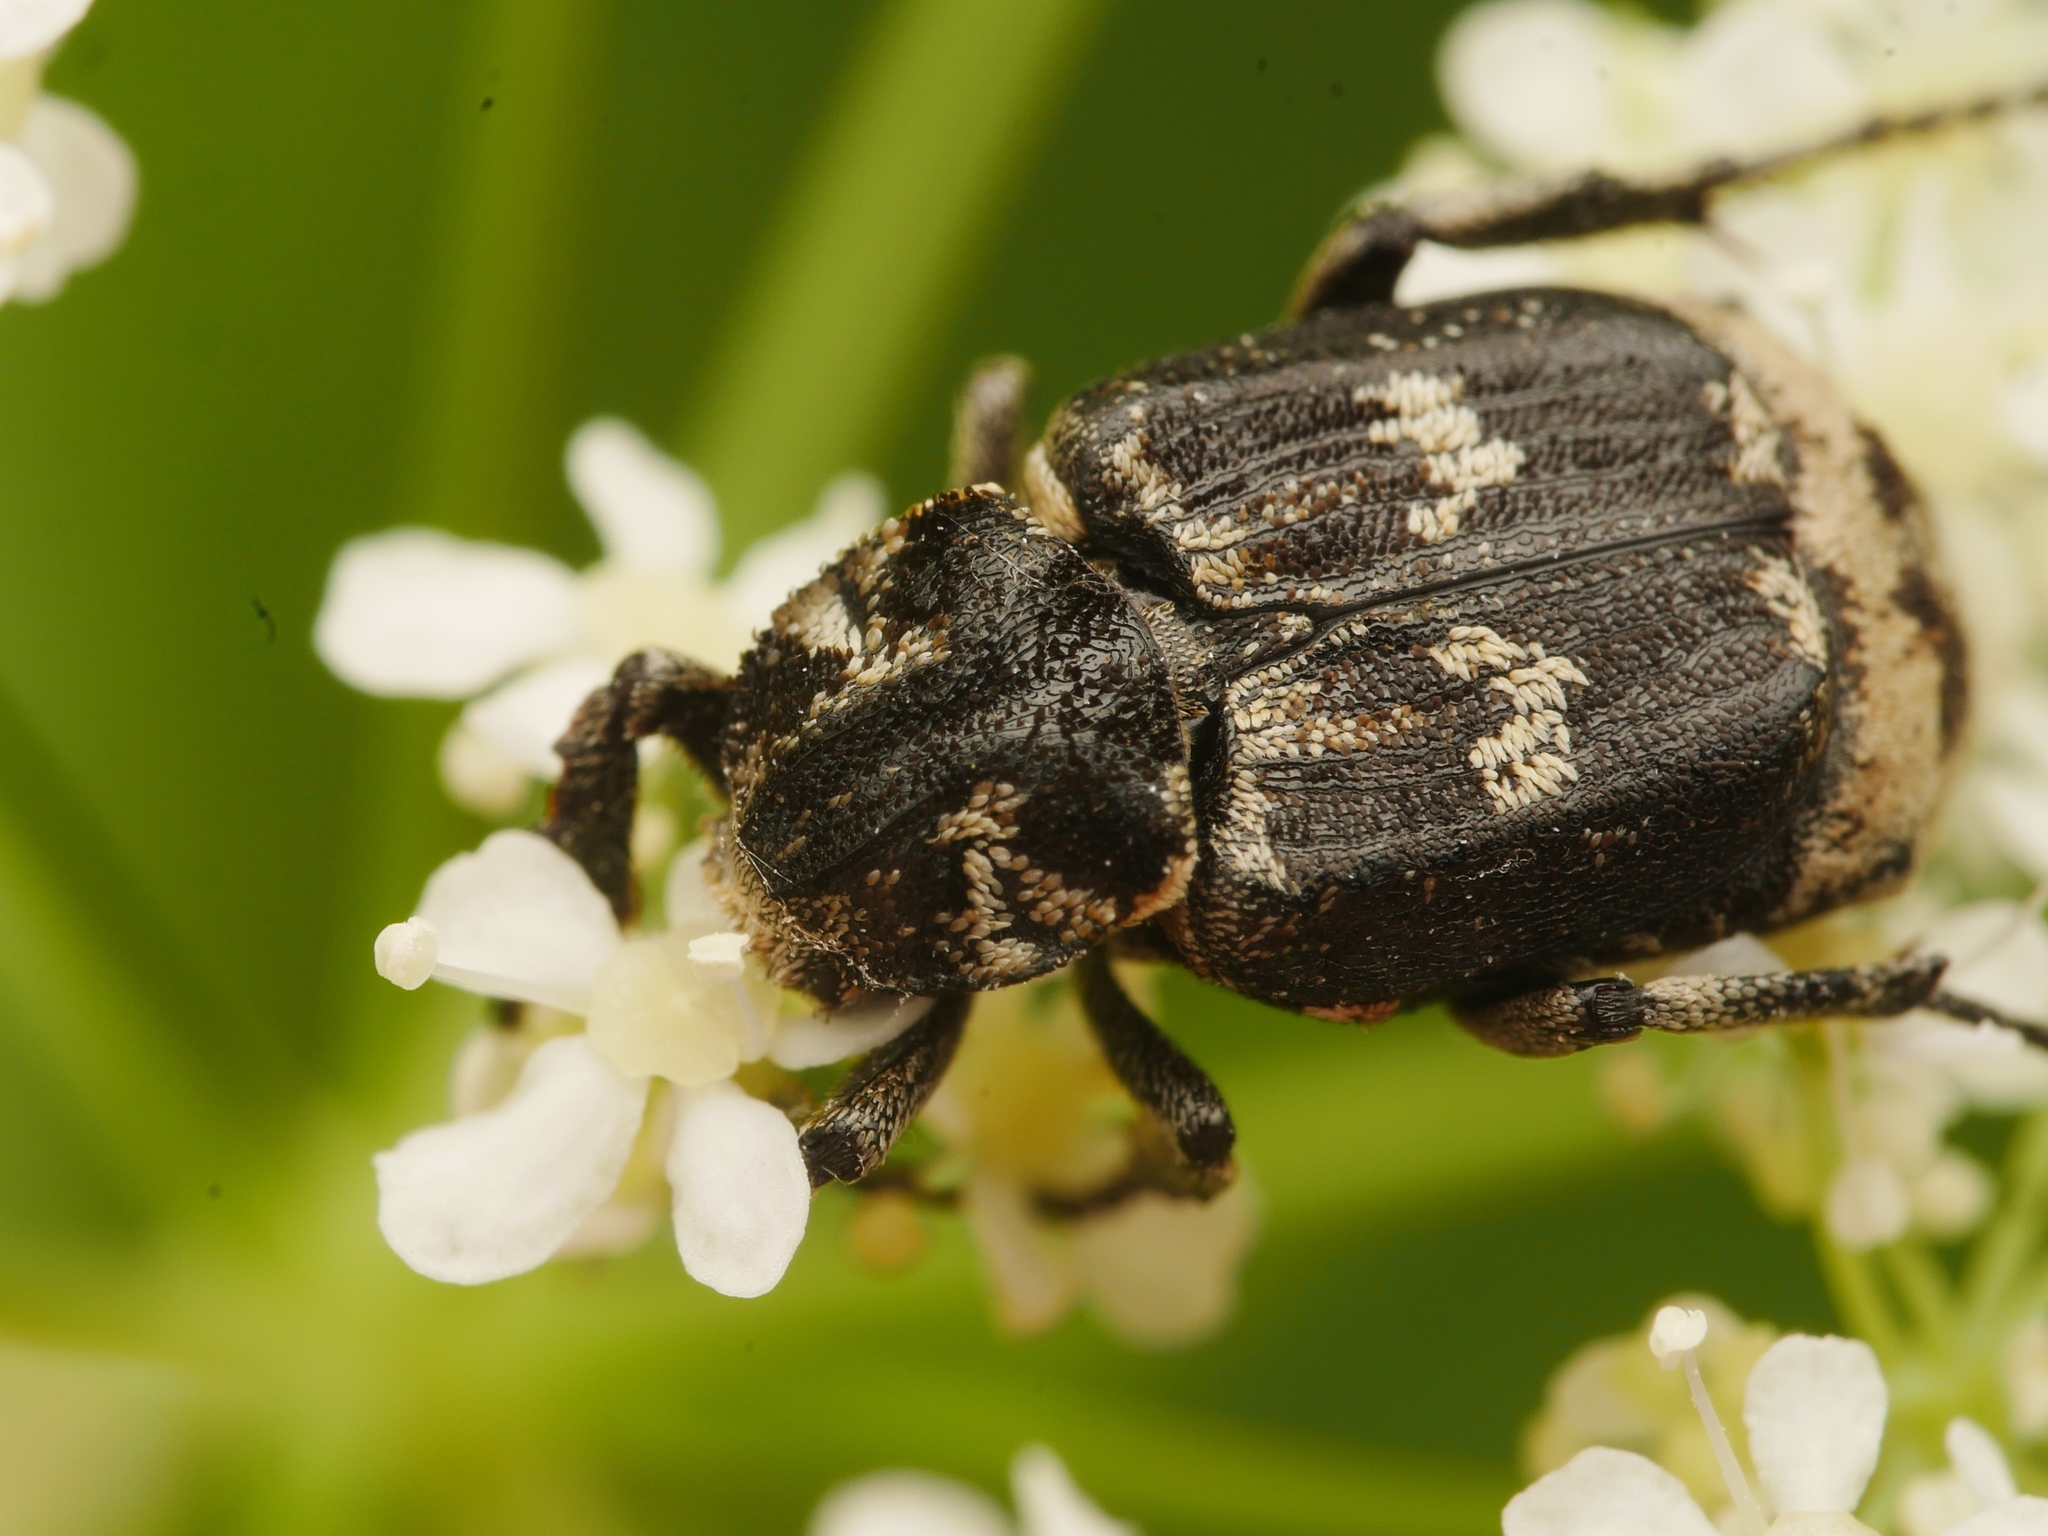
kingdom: Animalia
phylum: Arthropoda
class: Insecta
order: Coleoptera
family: Scarabaeidae
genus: Valgus
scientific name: Valgus hemipterus
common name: Bug flower chafer
